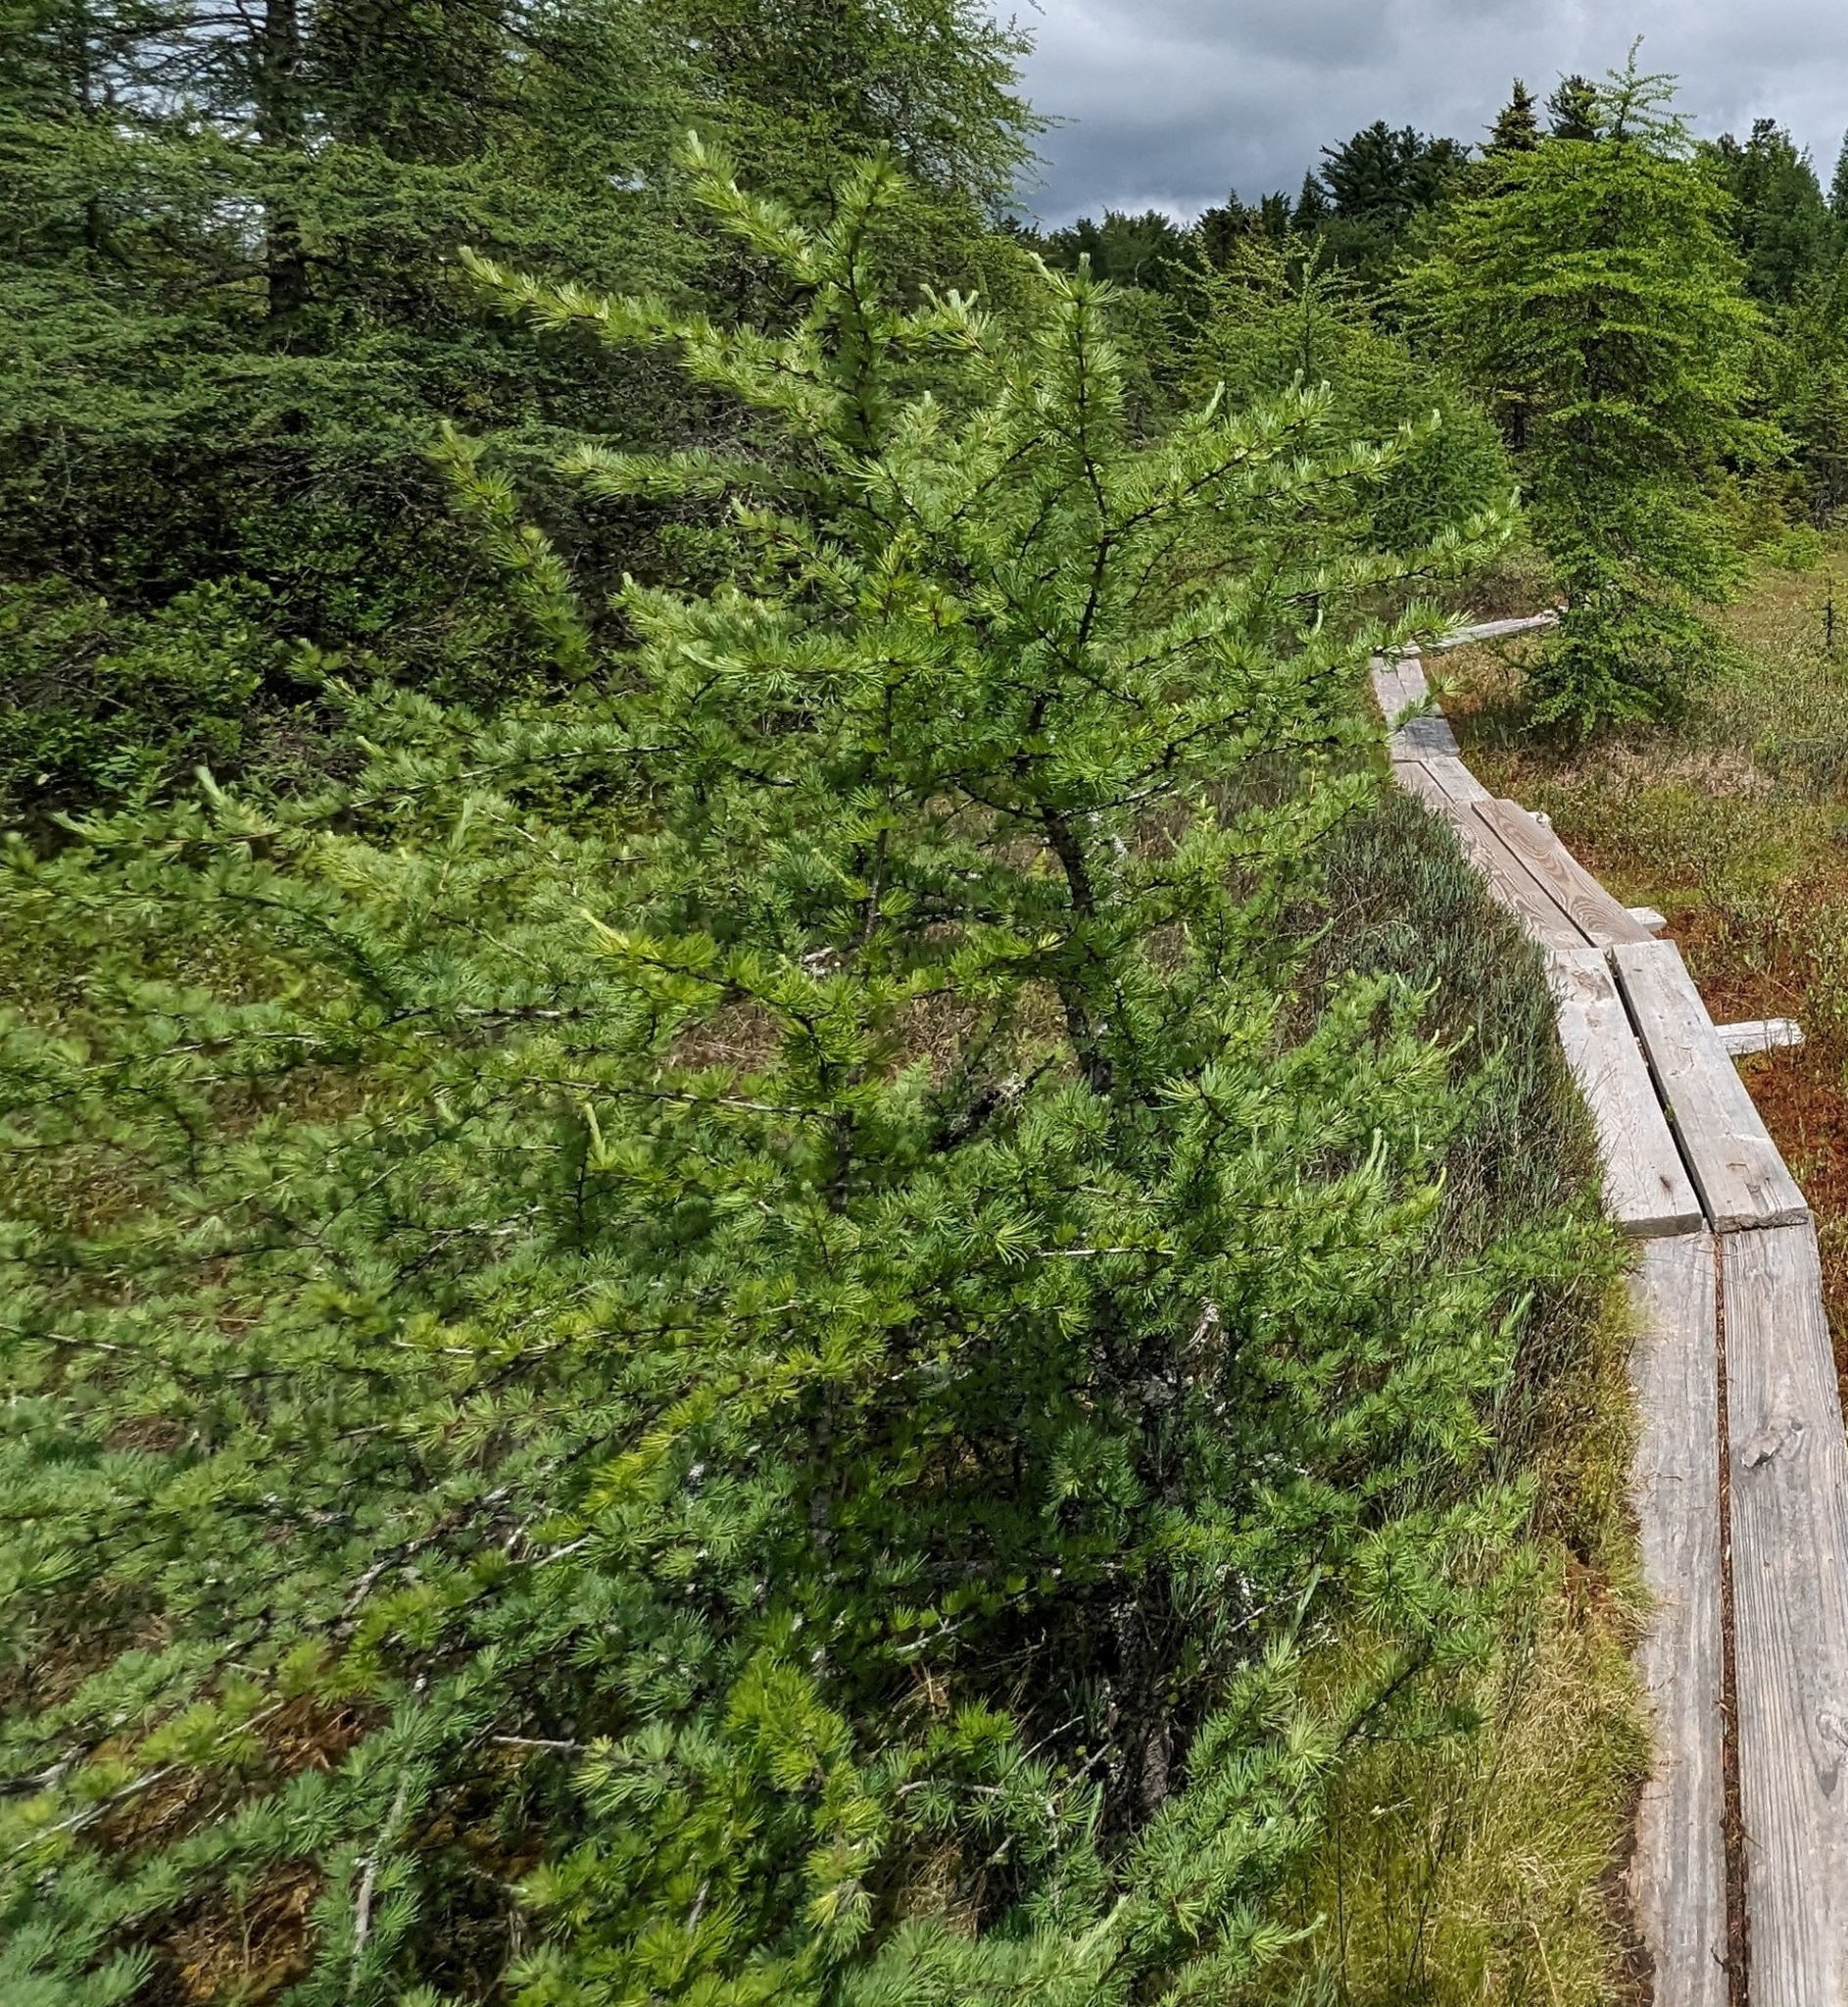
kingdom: Plantae
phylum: Tracheophyta
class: Pinopsida
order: Pinales
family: Pinaceae
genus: Larix
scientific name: Larix laricina
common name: American larch
